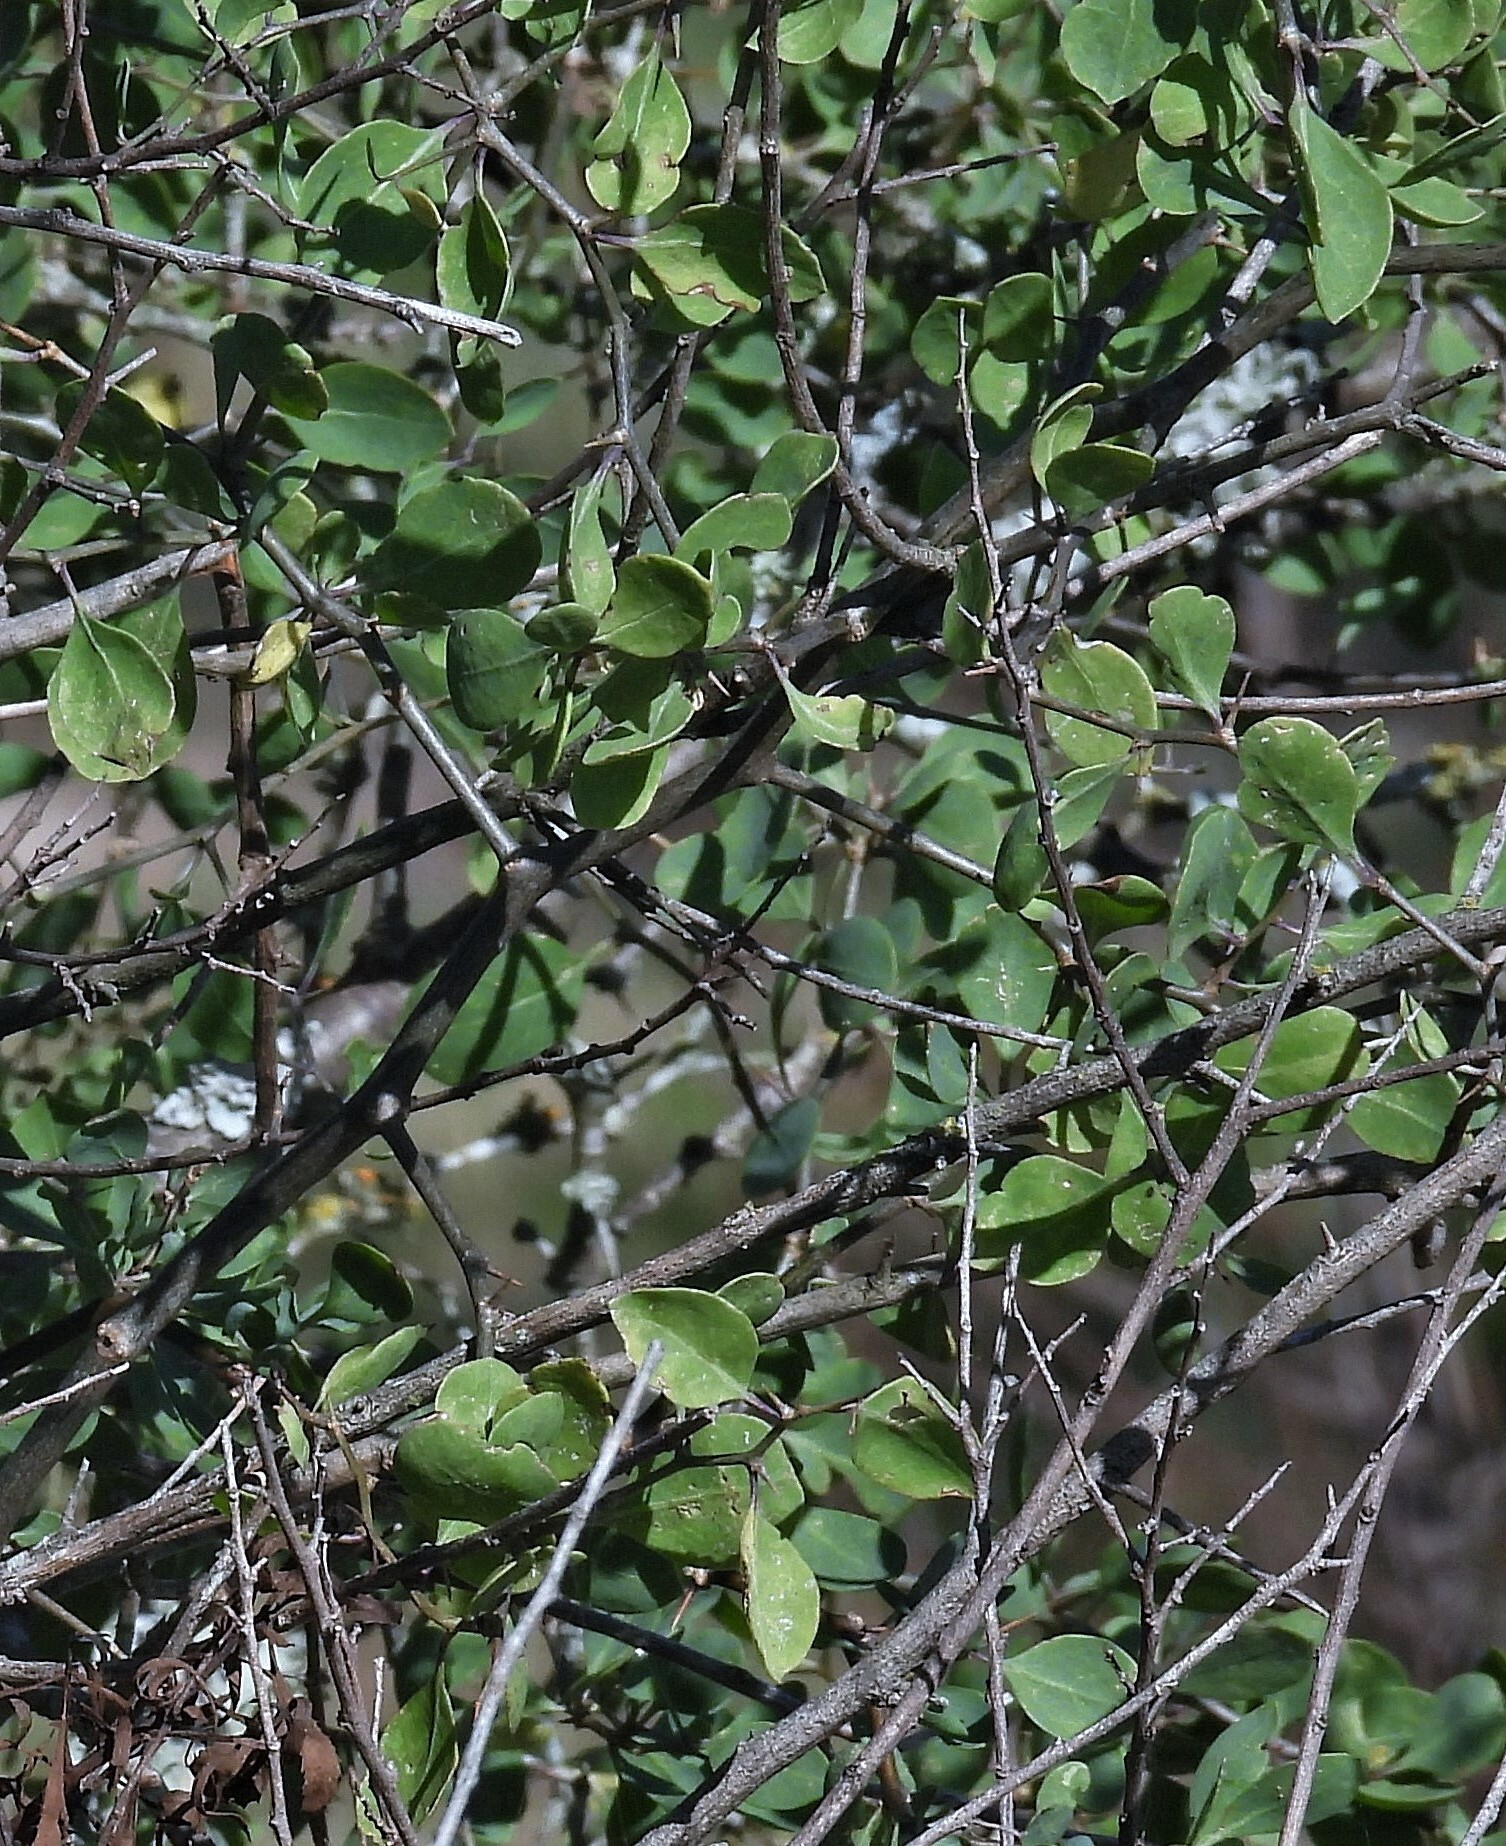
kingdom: Plantae
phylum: Tracheophyta
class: Magnoliopsida
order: Solanales
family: Solanaceae
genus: Lycium
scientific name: Lycium boerhaaviifolium
